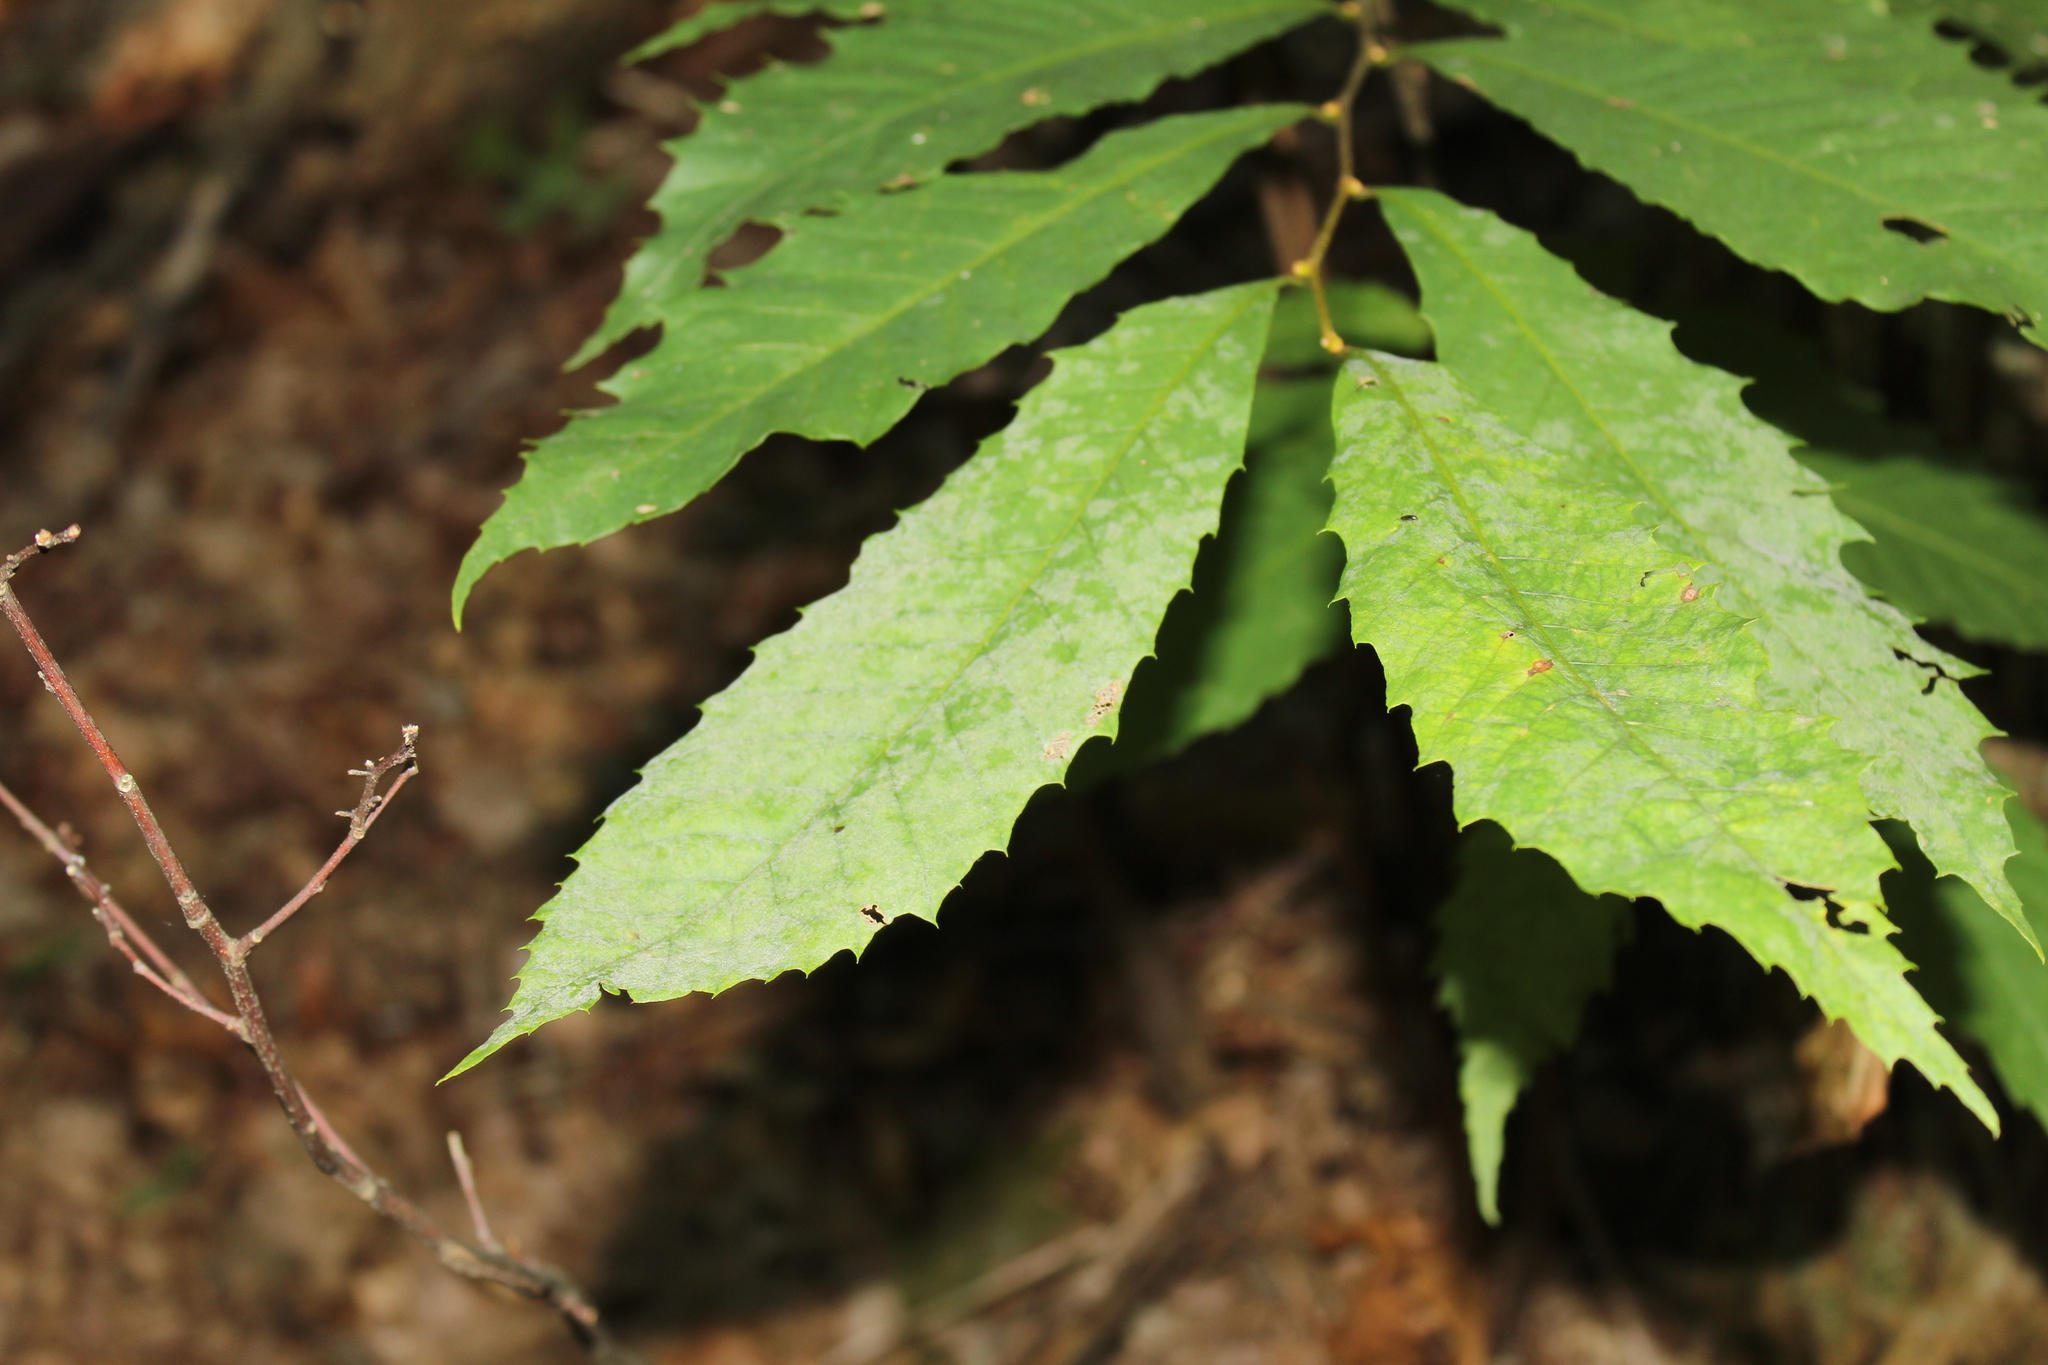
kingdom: Fungi
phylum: Ascomycota
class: Leotiomycetes
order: Helotiales
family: Erysiphaceae
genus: Erysiphe
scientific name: Erysiphe castaneae
